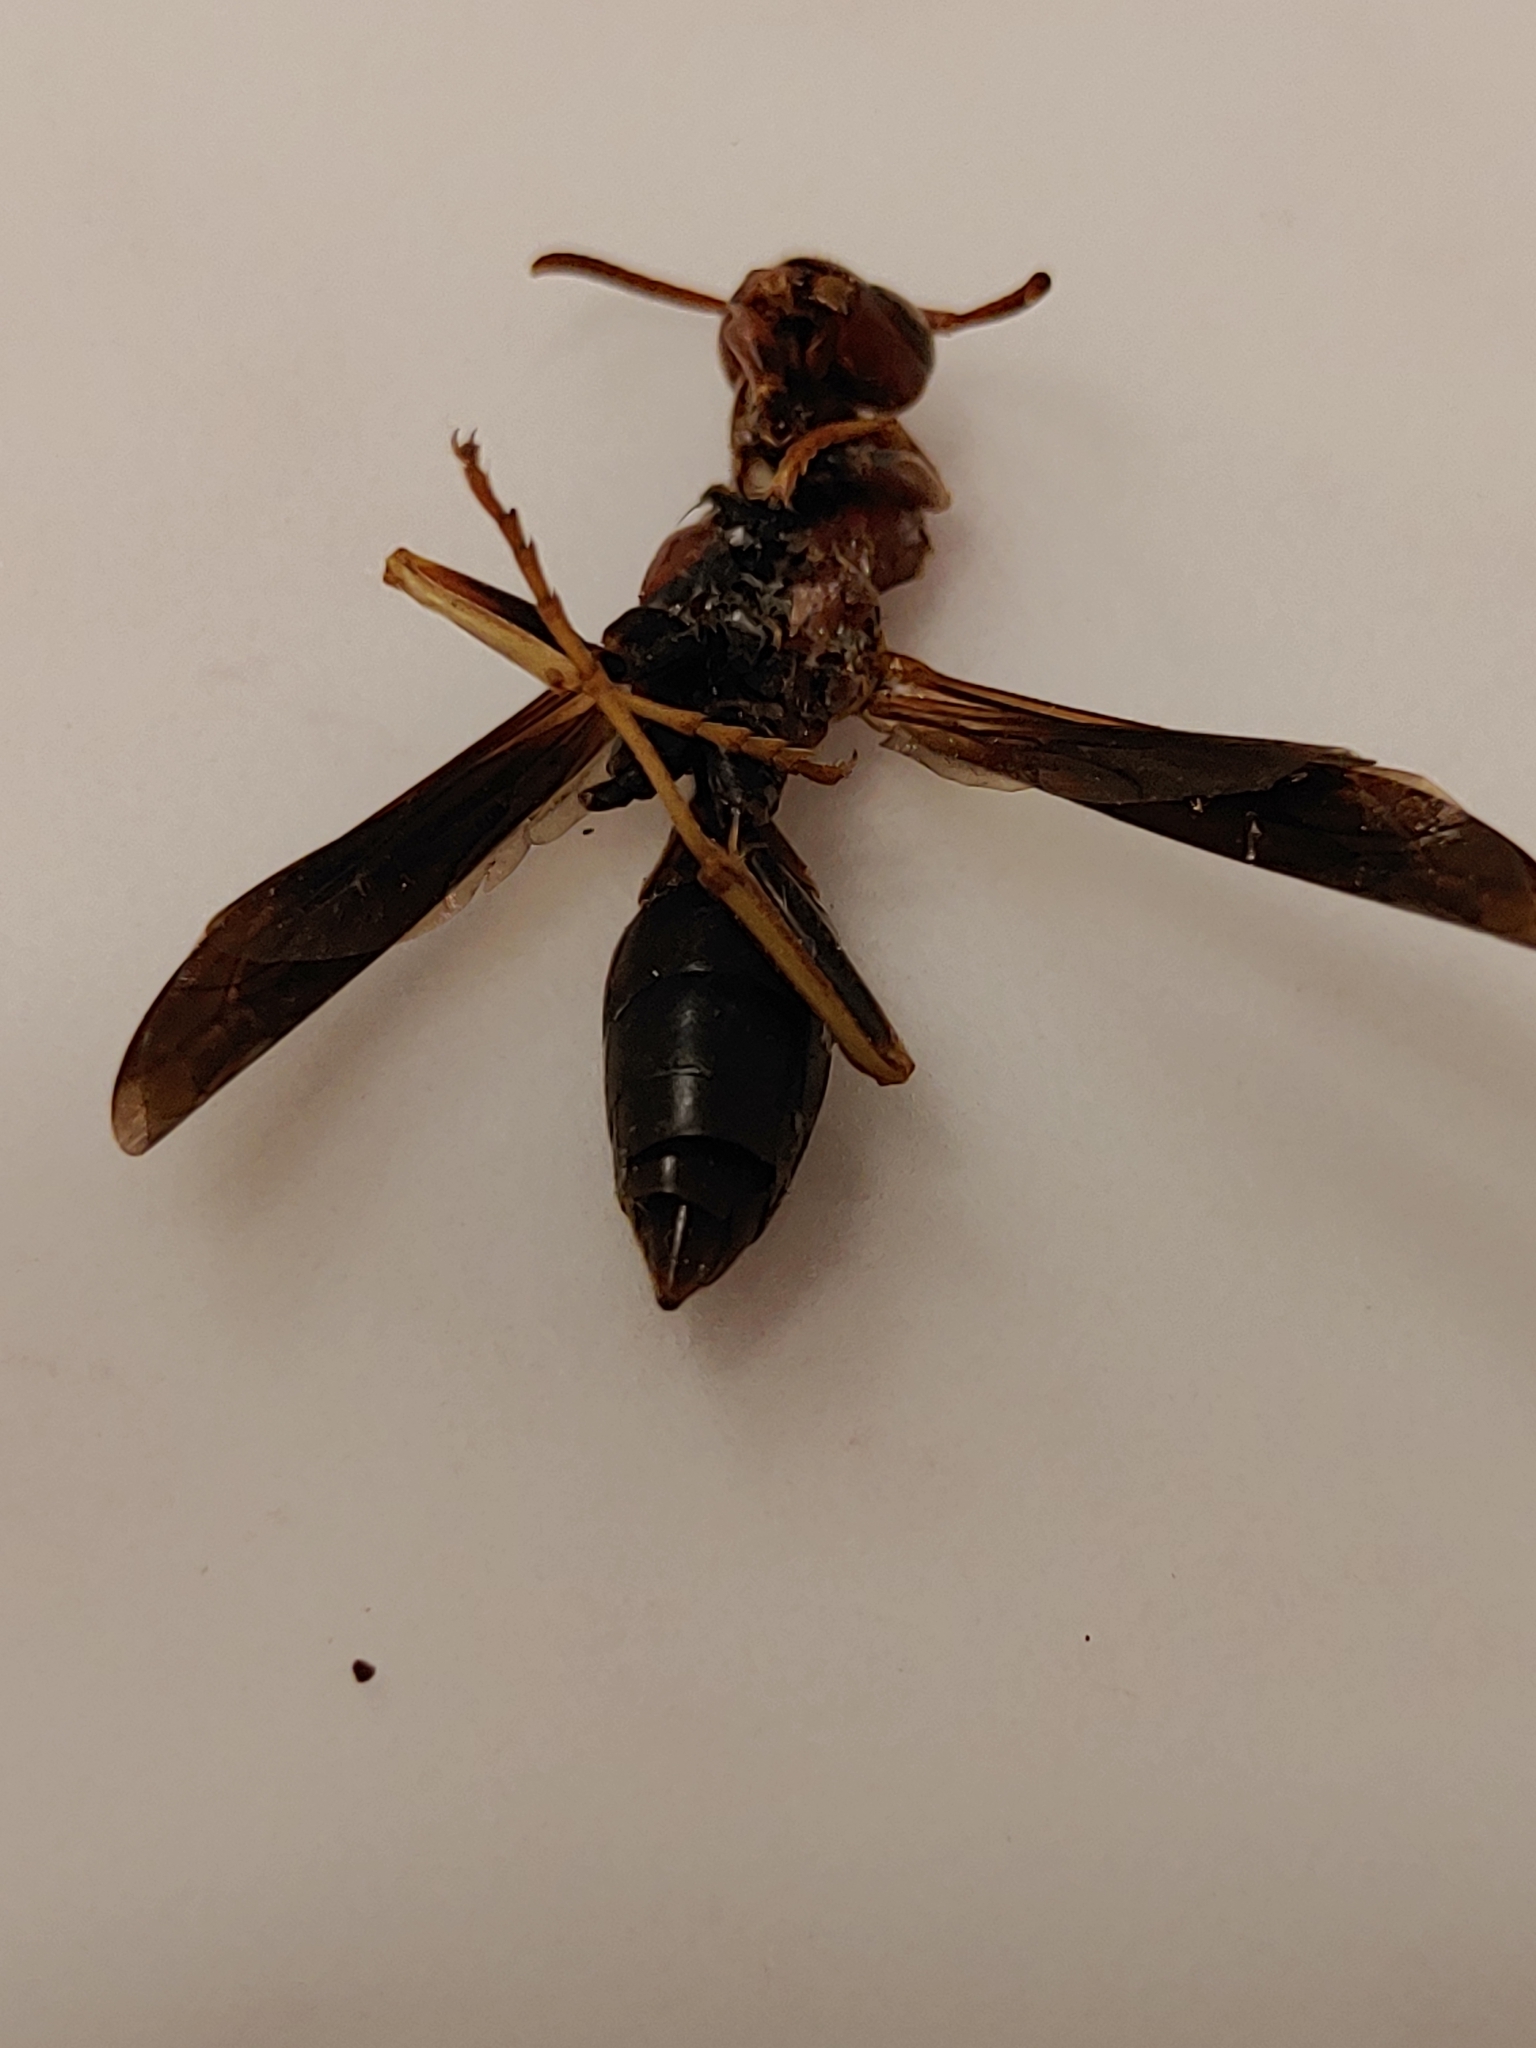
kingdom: Animalia
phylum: Arthropoda
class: Insecta
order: Hymenoptera
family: Eumenidae
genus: Polistes
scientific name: Polistes fuscatus
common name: Dark paper wasp
